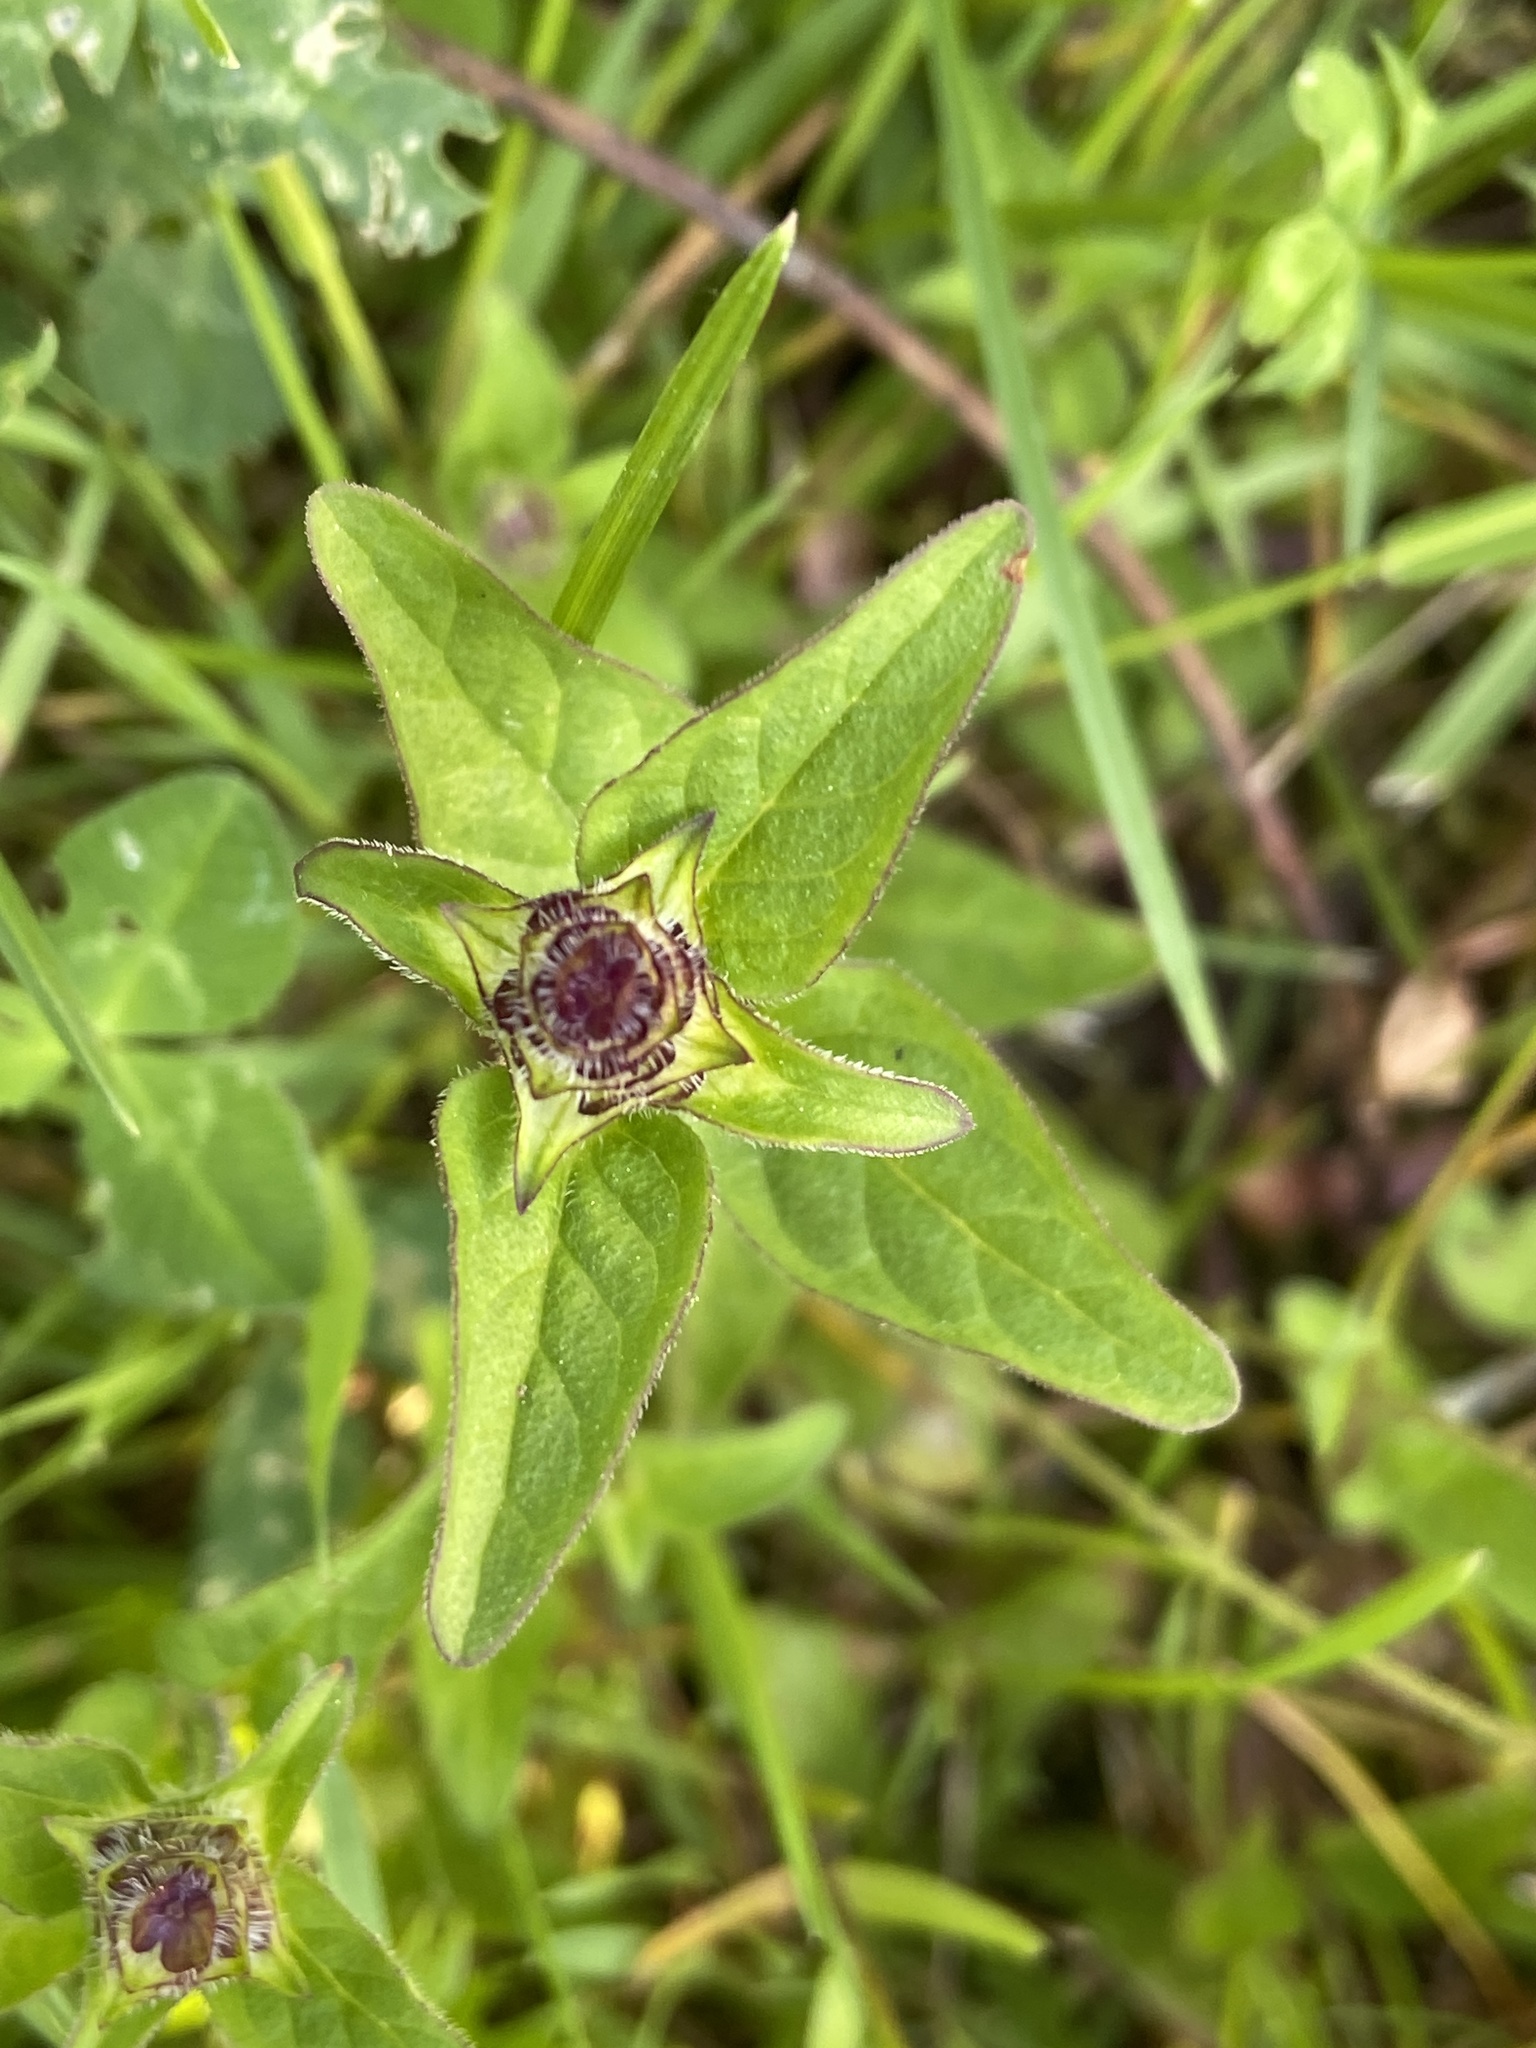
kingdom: Plantae
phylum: Tracheophyta
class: Magnoliopsida
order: Lamiales
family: Lamiaceae
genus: Prunella
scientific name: Prunella vulgaris
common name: Heal-all
